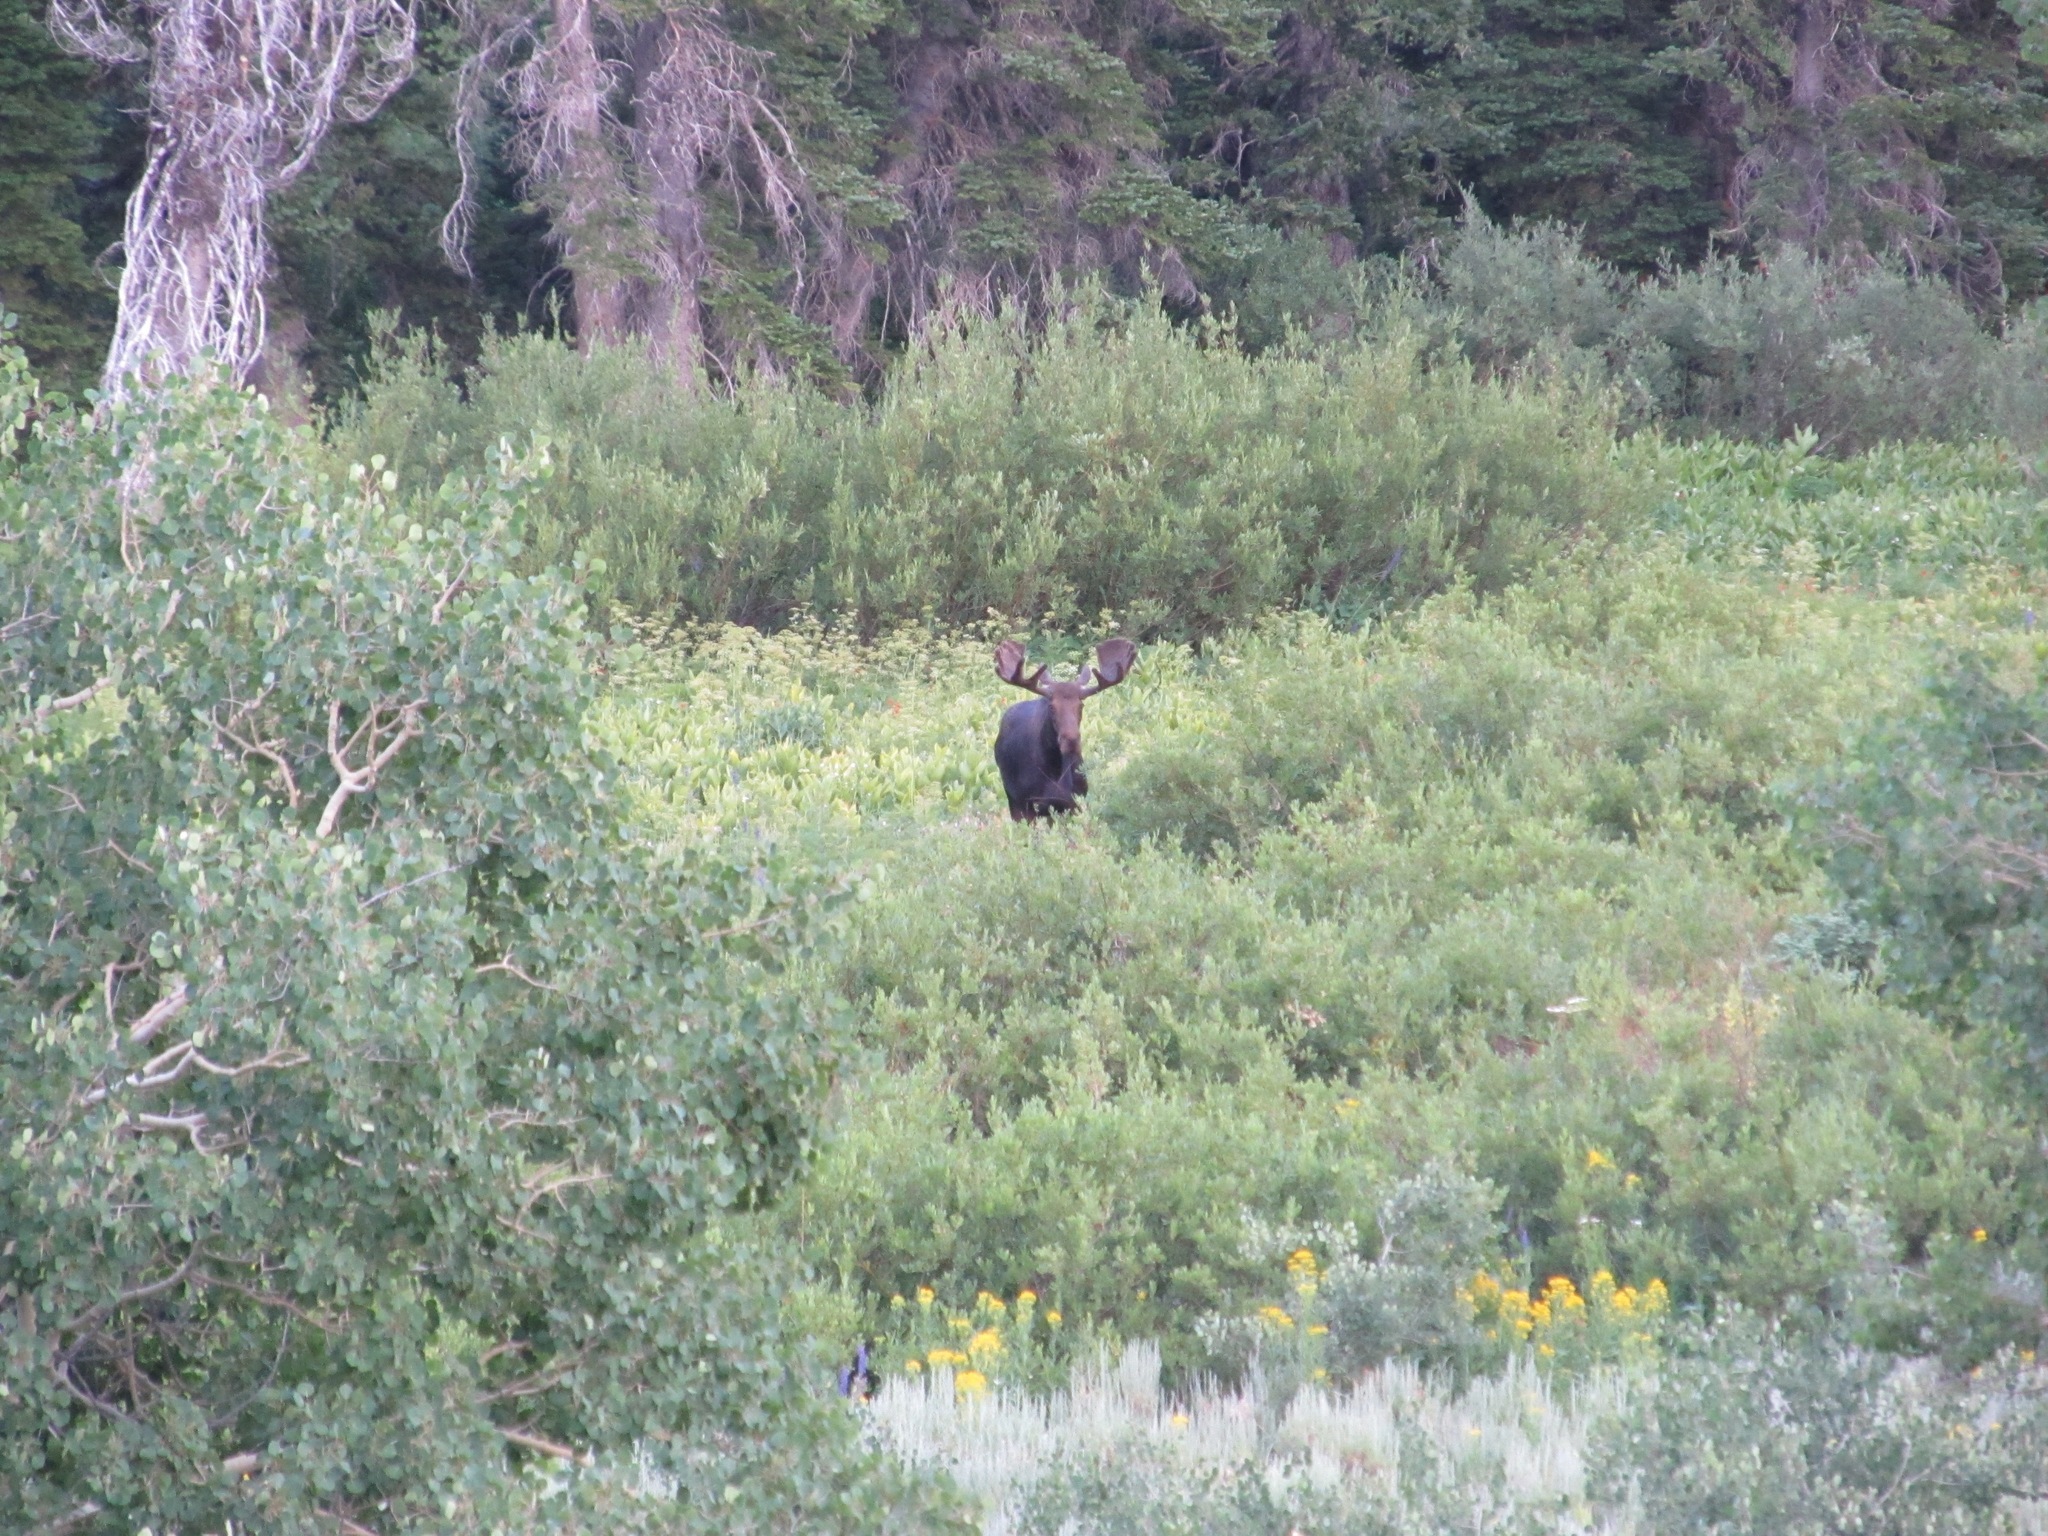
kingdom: Animalia
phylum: Chordata
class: Mammalia
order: Artiodactyla
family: Cervidae
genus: Alces
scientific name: Alces alces
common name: Moose
